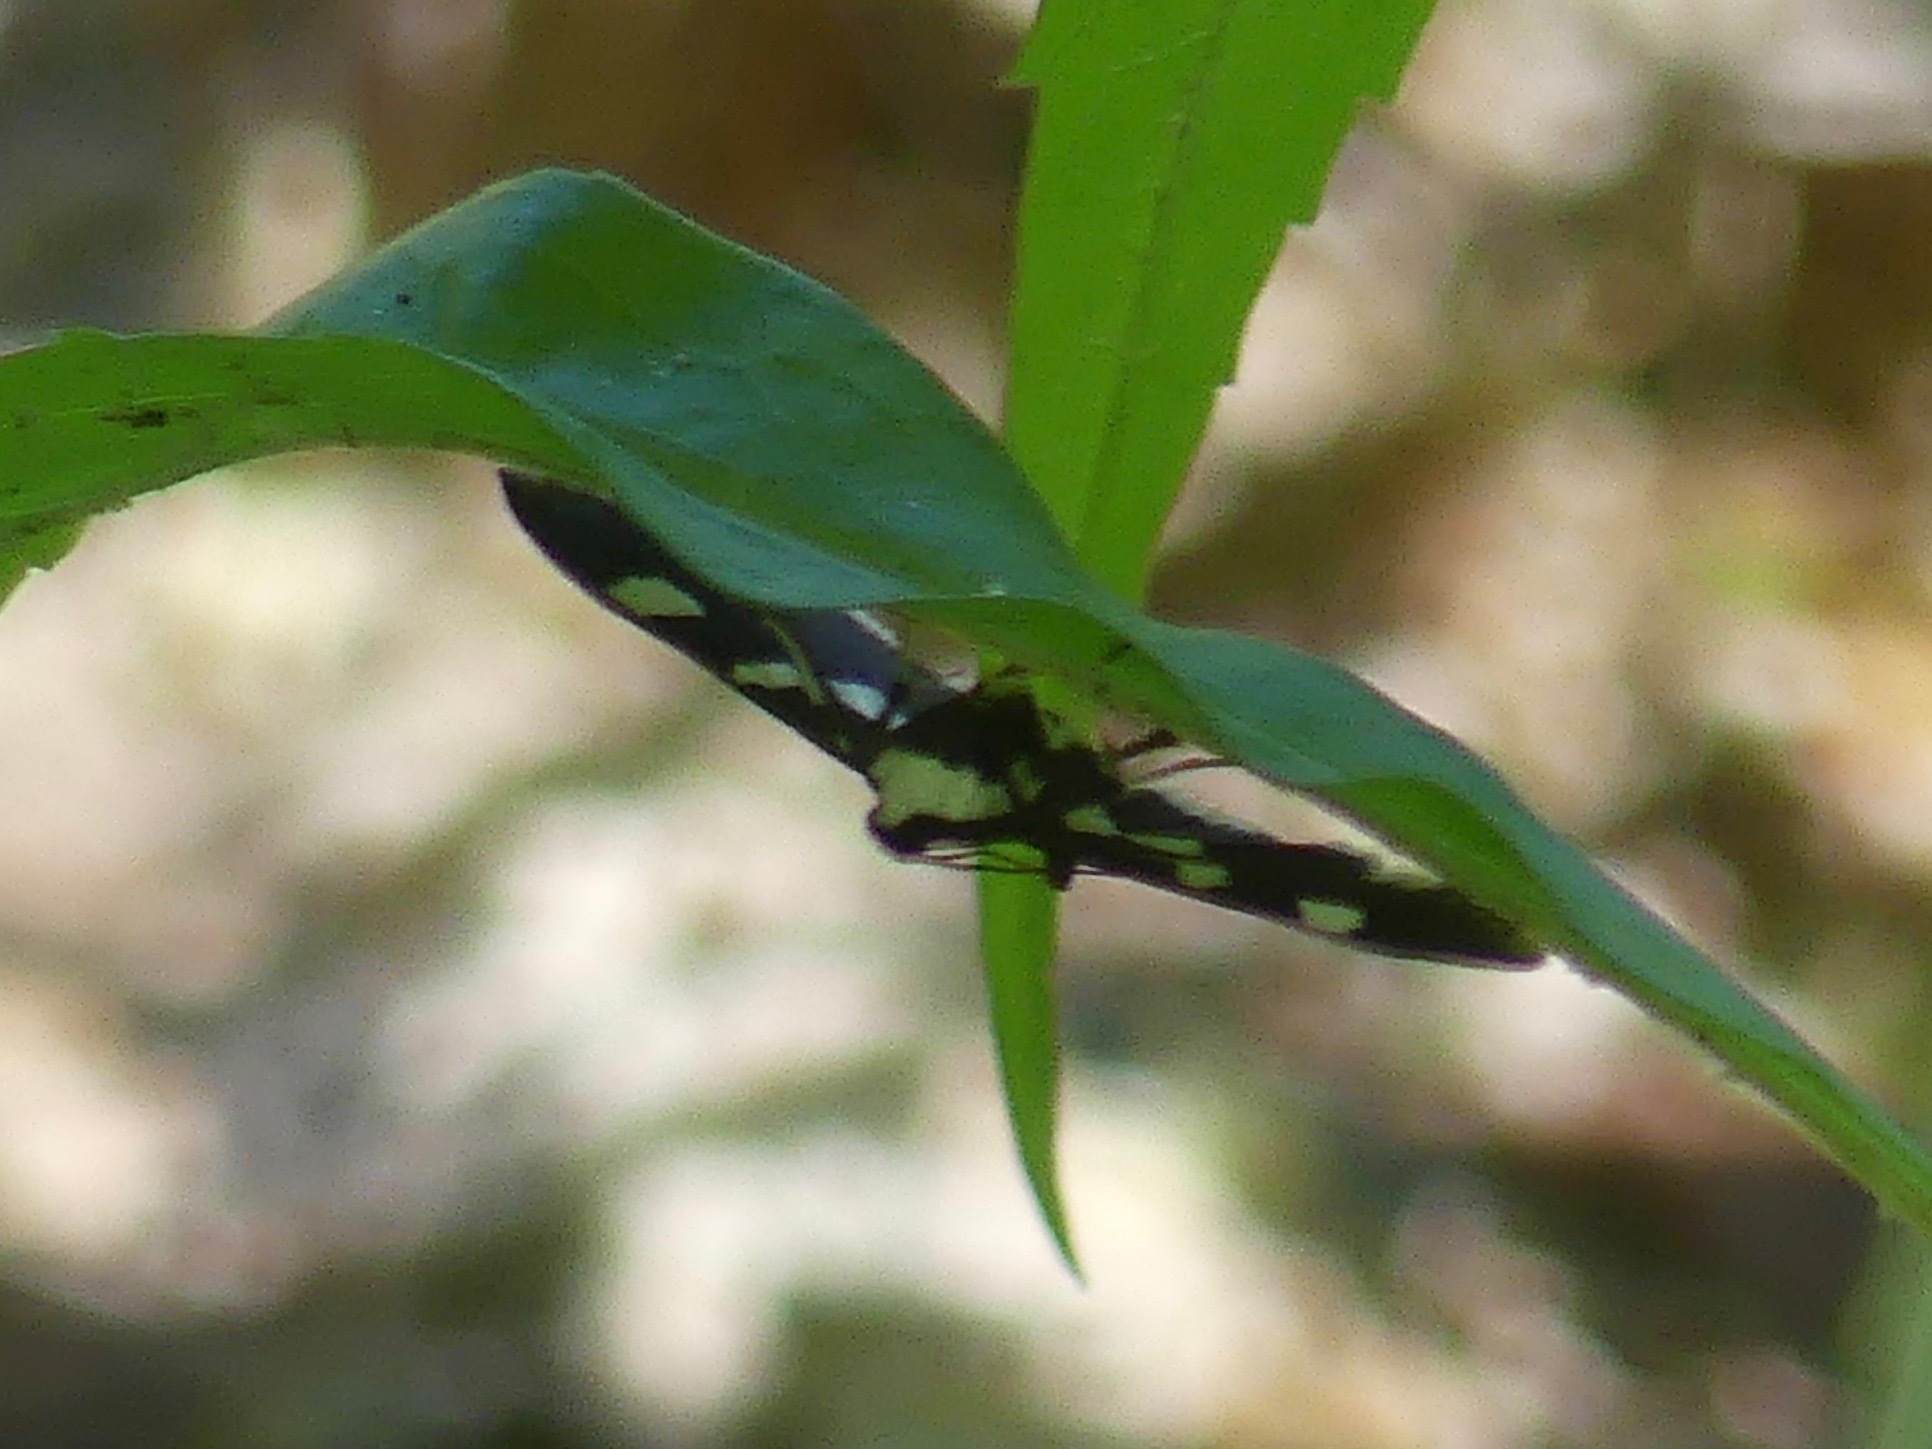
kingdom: Animalia
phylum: Arthropoda
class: Insecta
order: Lepidoptera
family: Crambidae
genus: Desmia
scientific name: Desmia
